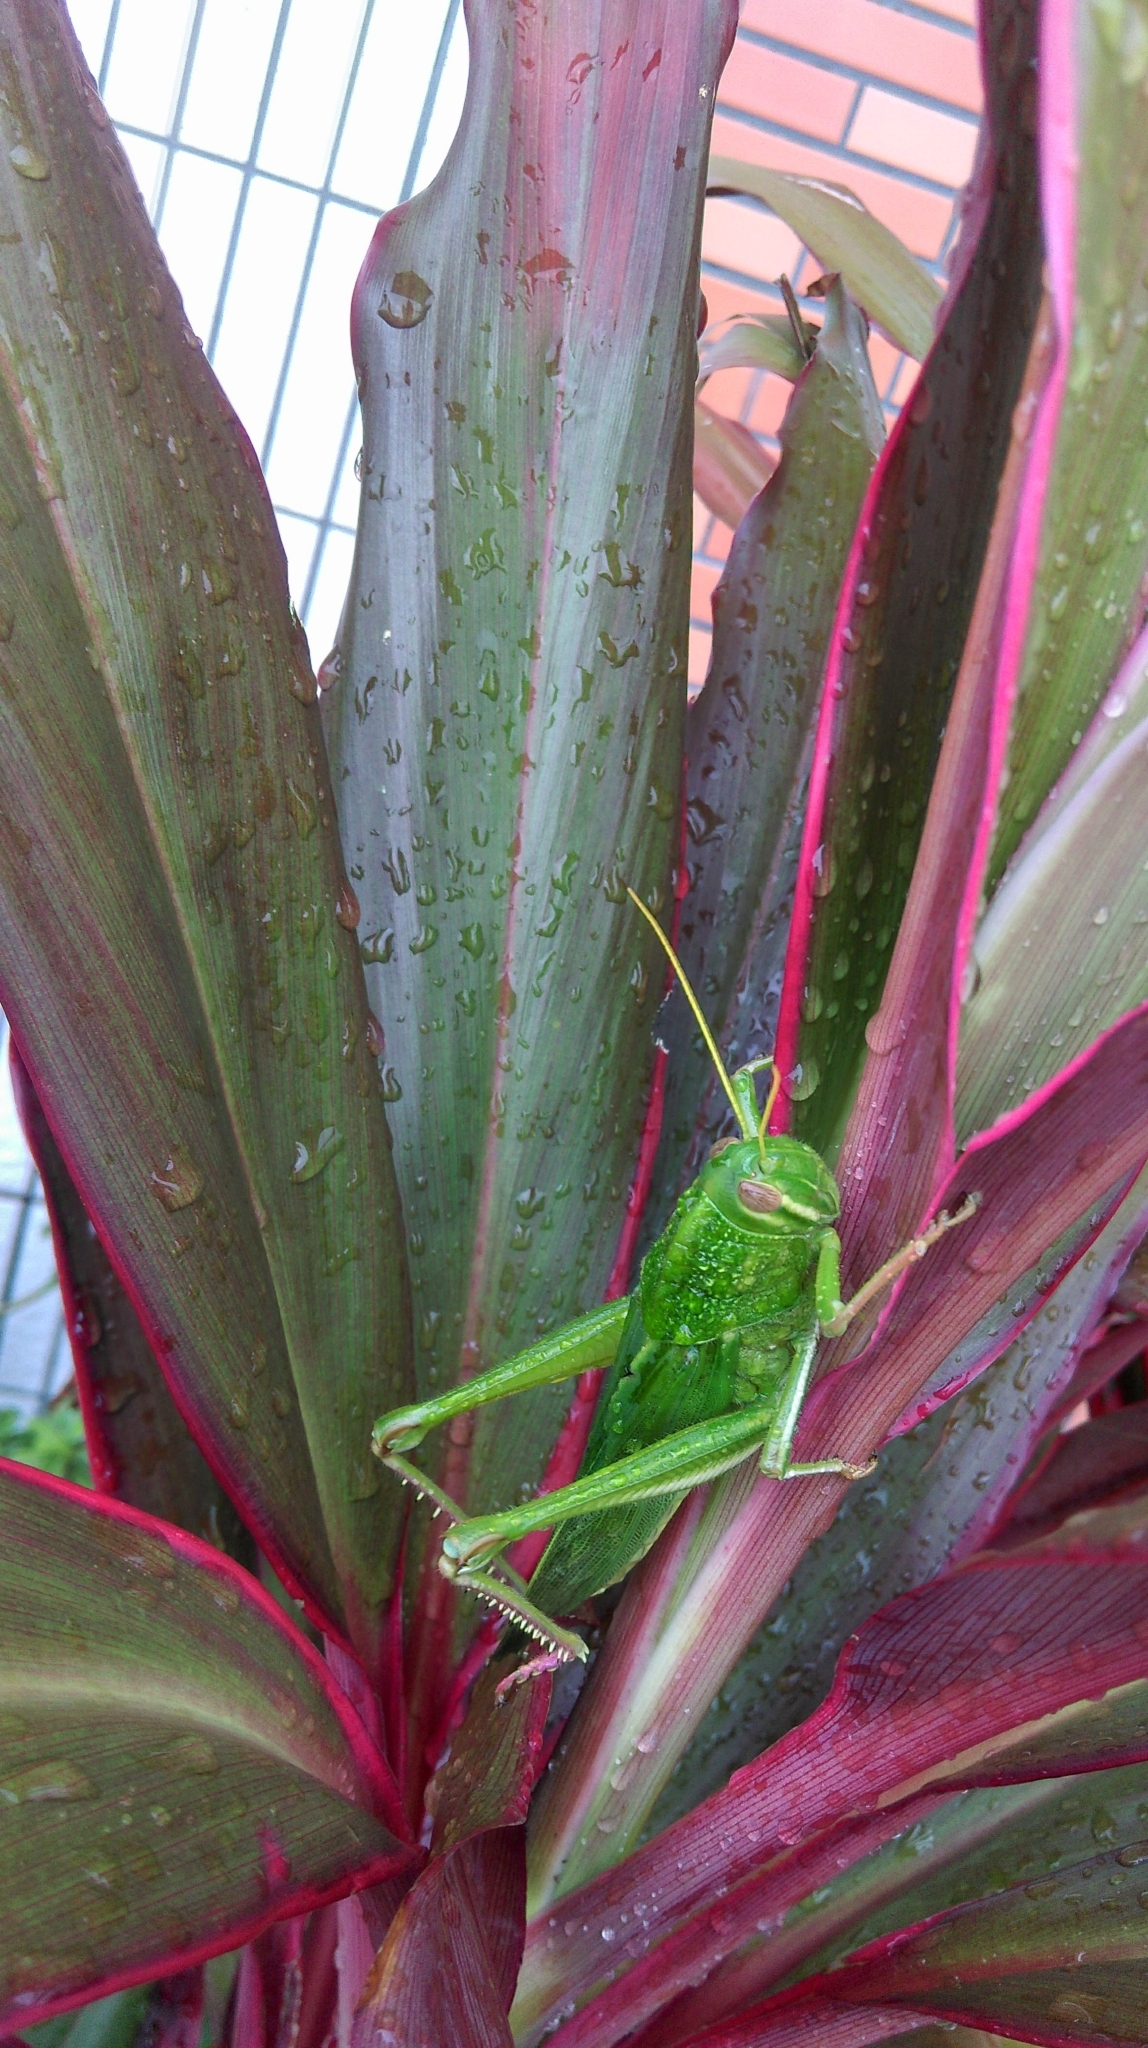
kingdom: Animalia
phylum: Arthropoda
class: Insecta
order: Orthoptera
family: Acrididae
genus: Chondracris
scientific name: Chondracris rosea
